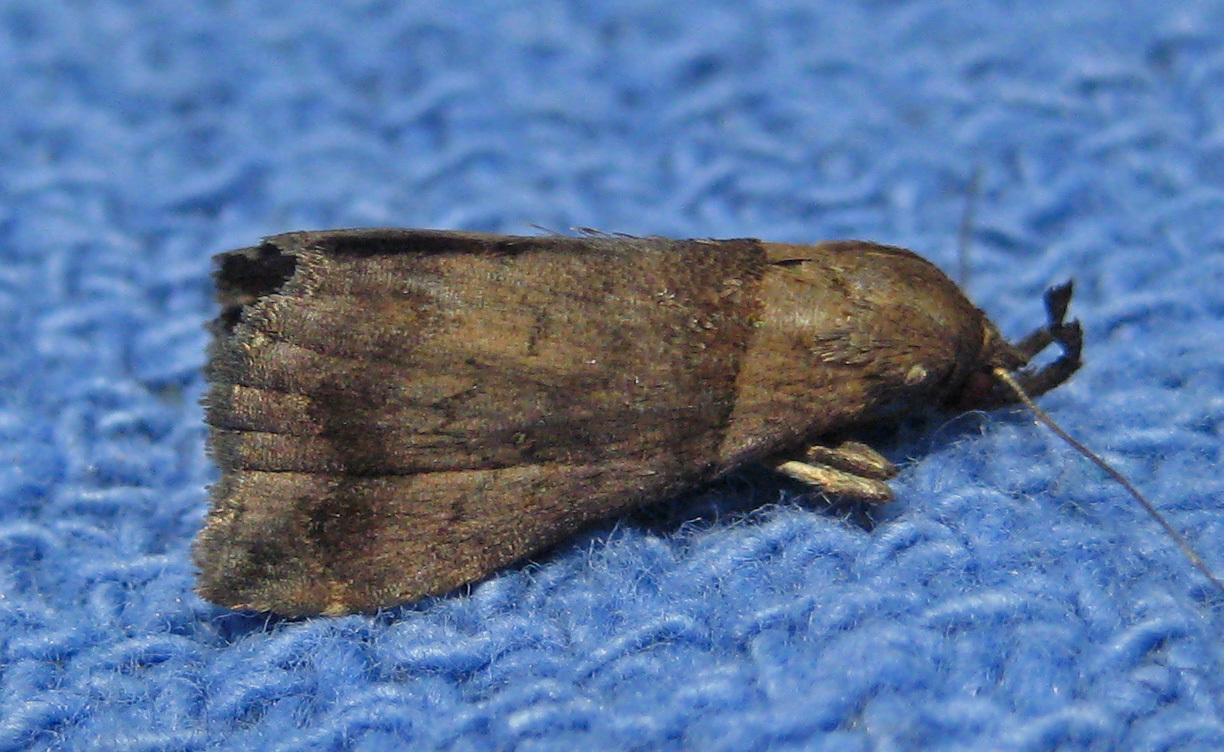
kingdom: Animalia
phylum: Arthropoda
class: Insecta
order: Lepidoptera
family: Erebidae
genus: Lascoria
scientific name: Lascoria ambigualis
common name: Ambiguous moth
